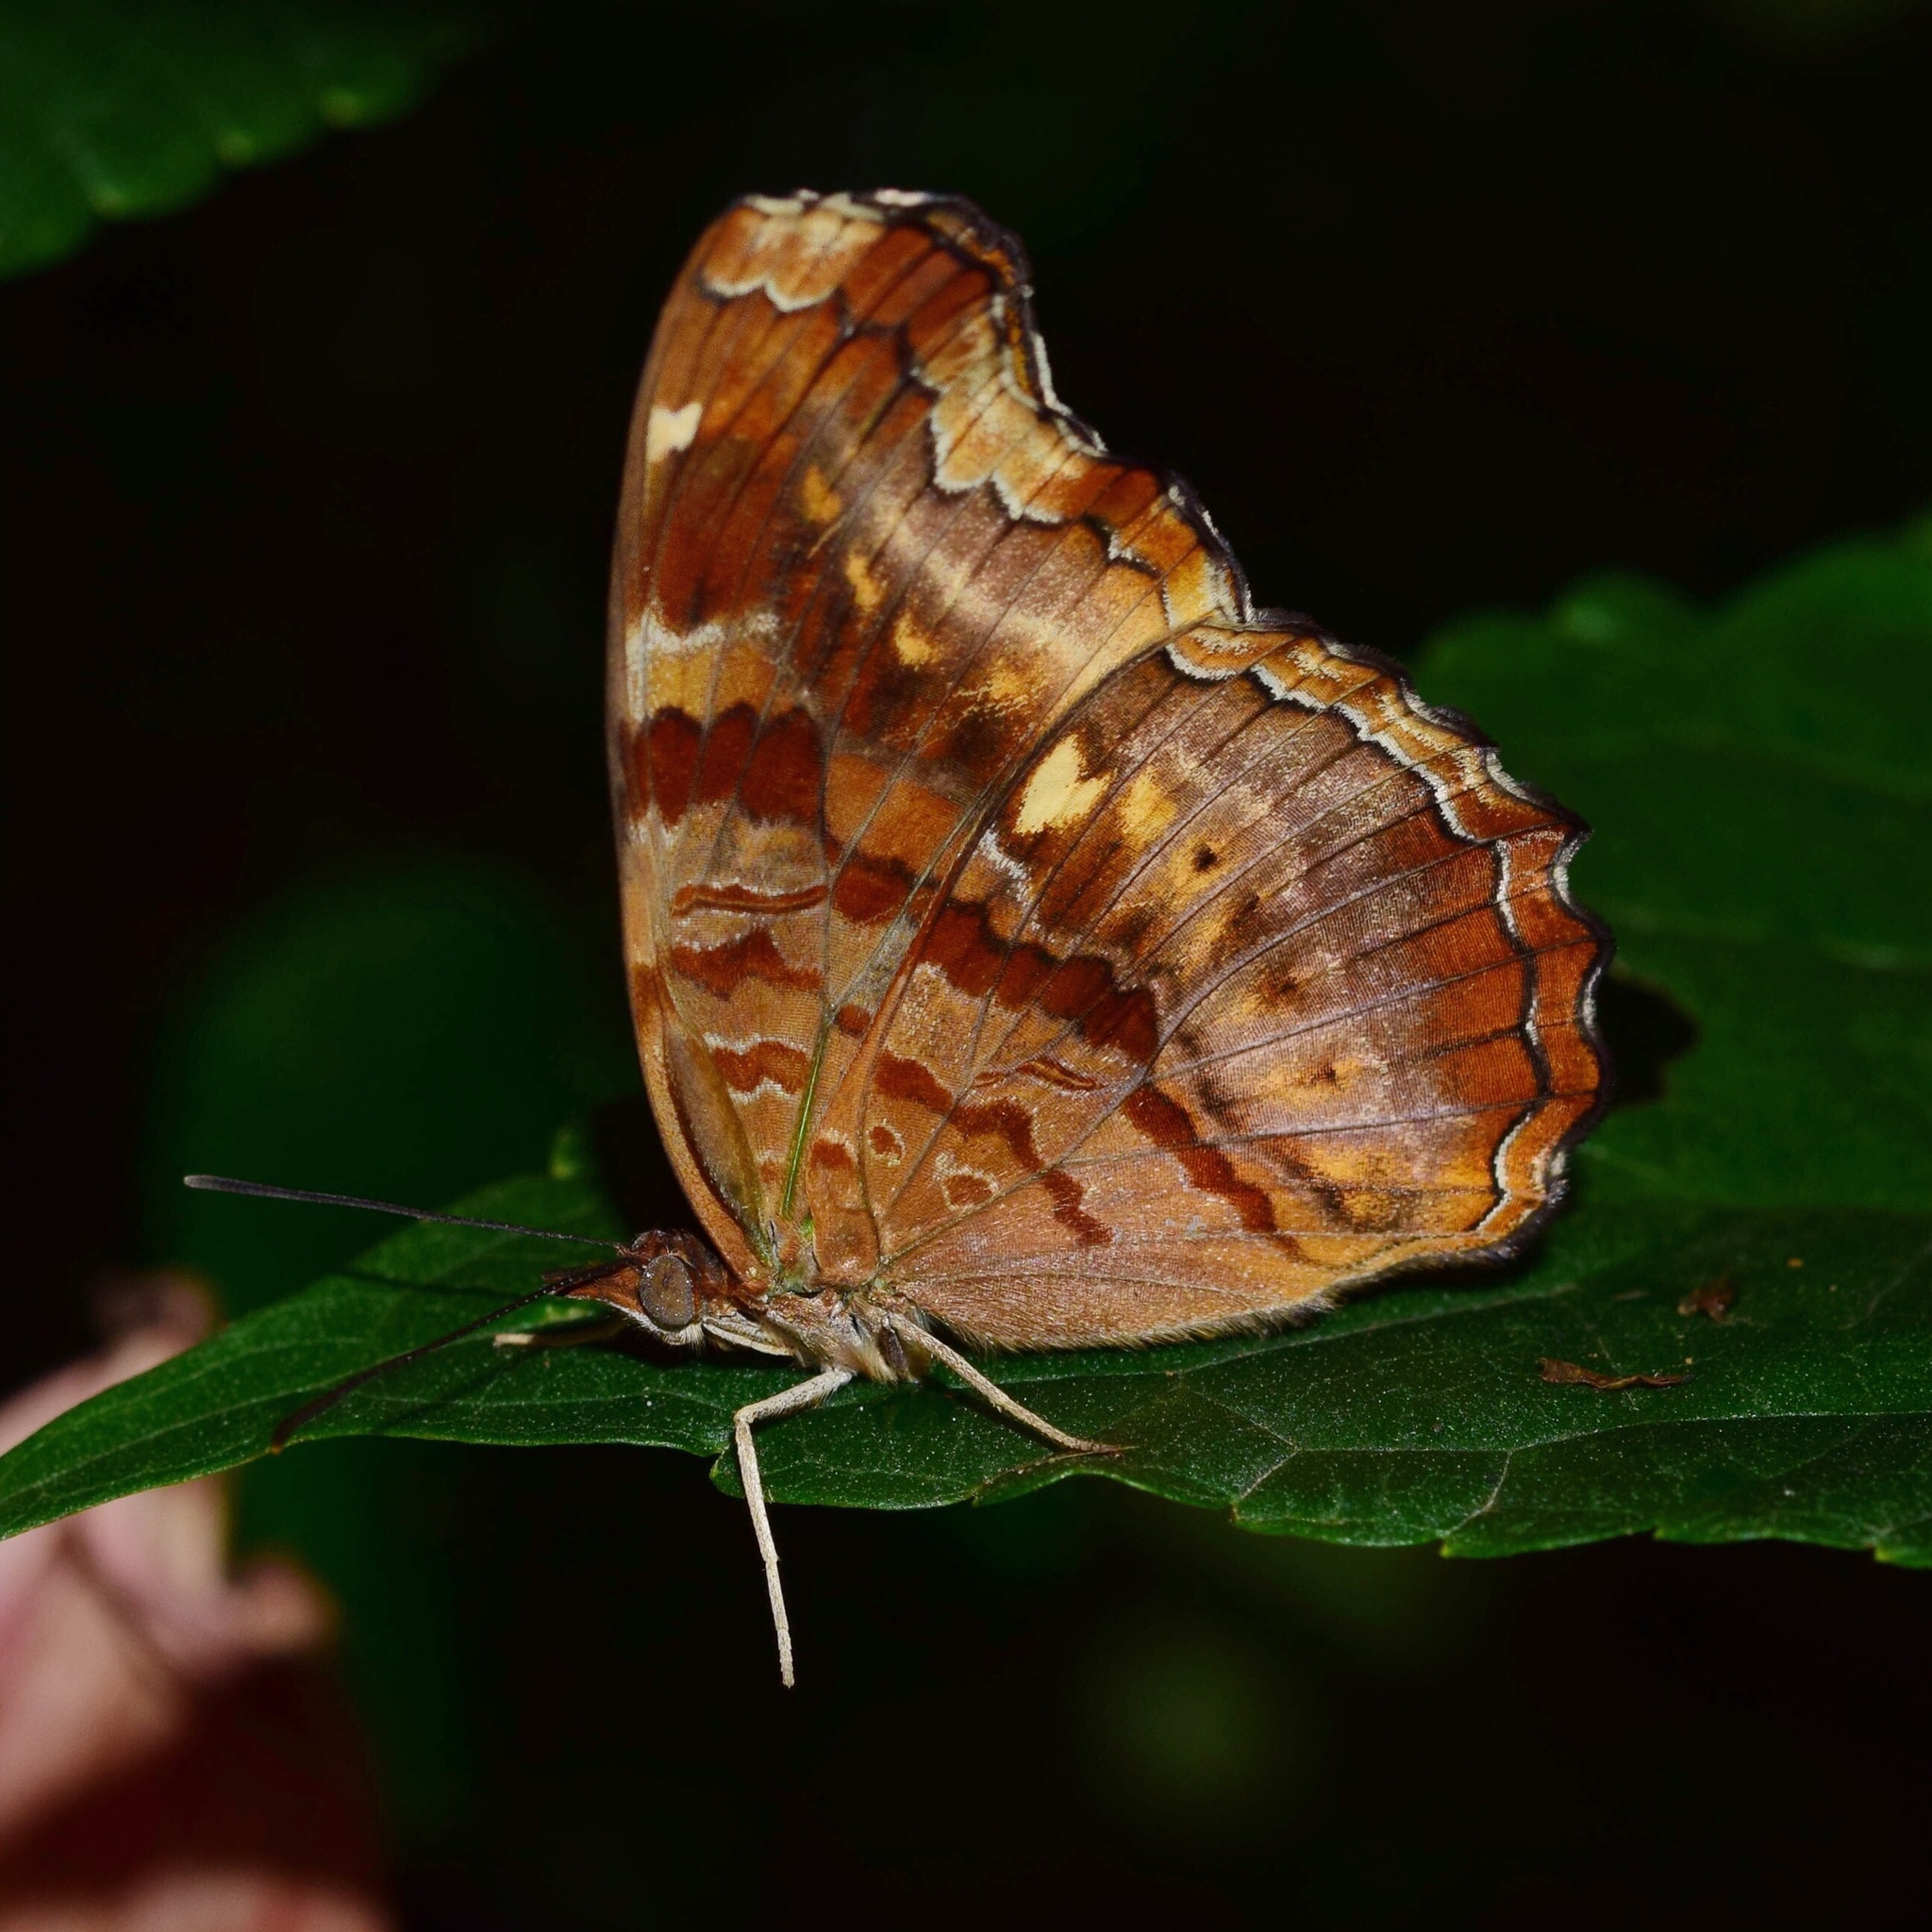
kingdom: Animalia
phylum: Arthropoda
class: Insecta
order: Lepidoptera
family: Nymphalidae
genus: Eurytela
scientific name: Eurytela dryope
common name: Golden piper
